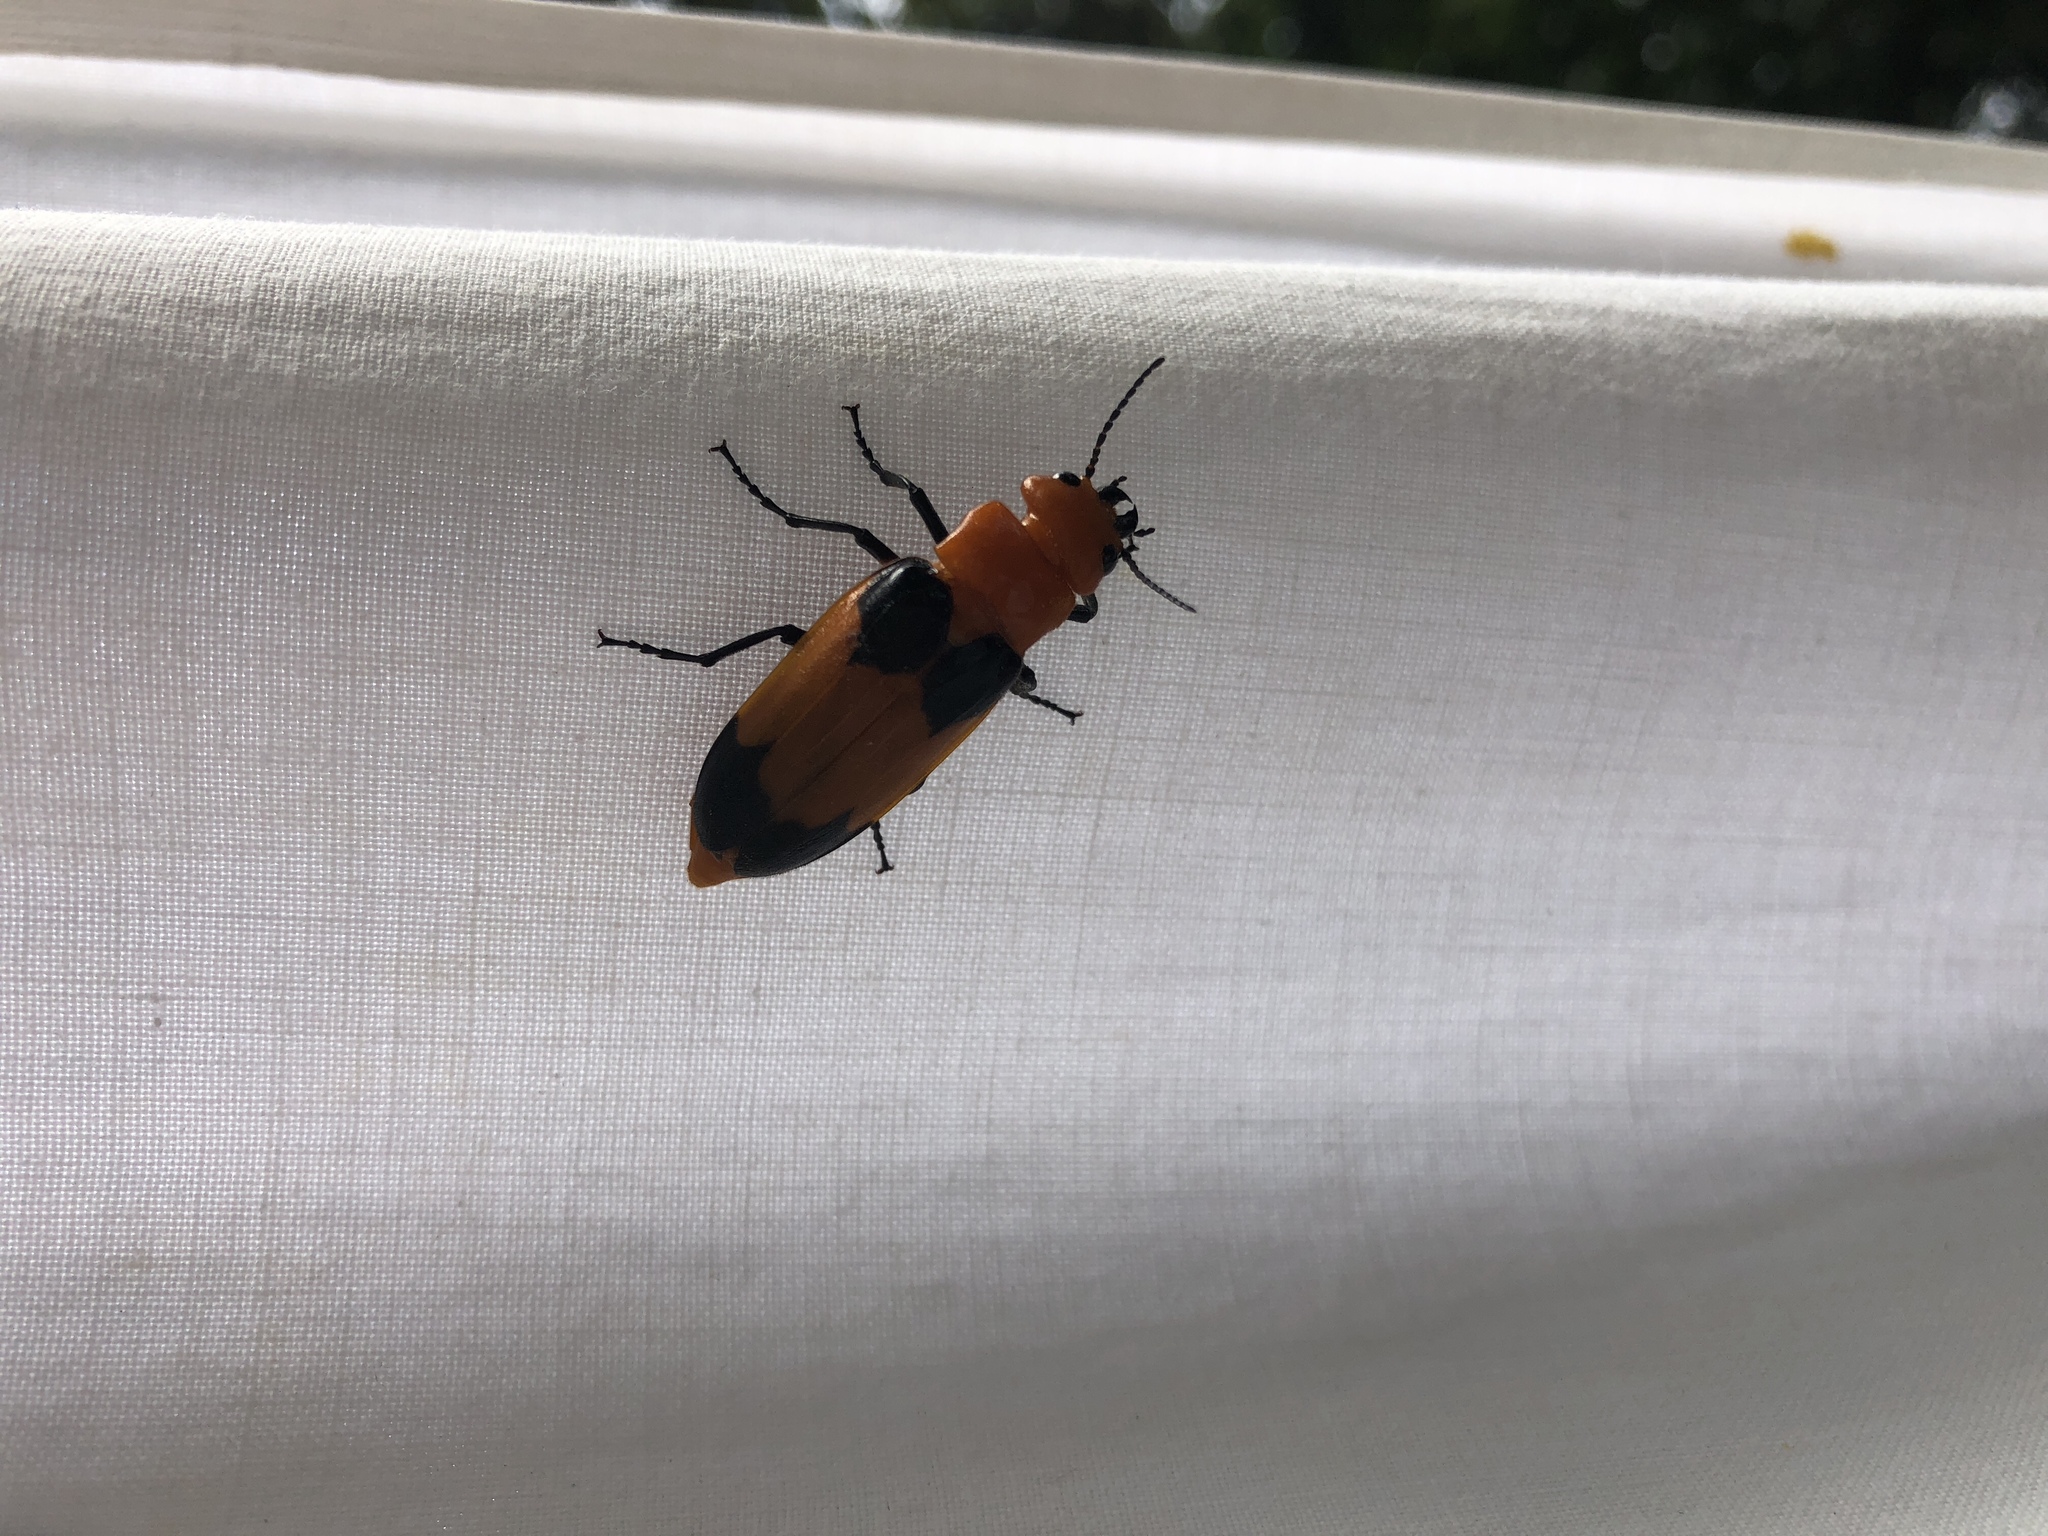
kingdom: Animalia
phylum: Arthropoda
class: Insecta
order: Coleoptera
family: Meloidae
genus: Cissites
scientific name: Cissites maculata
